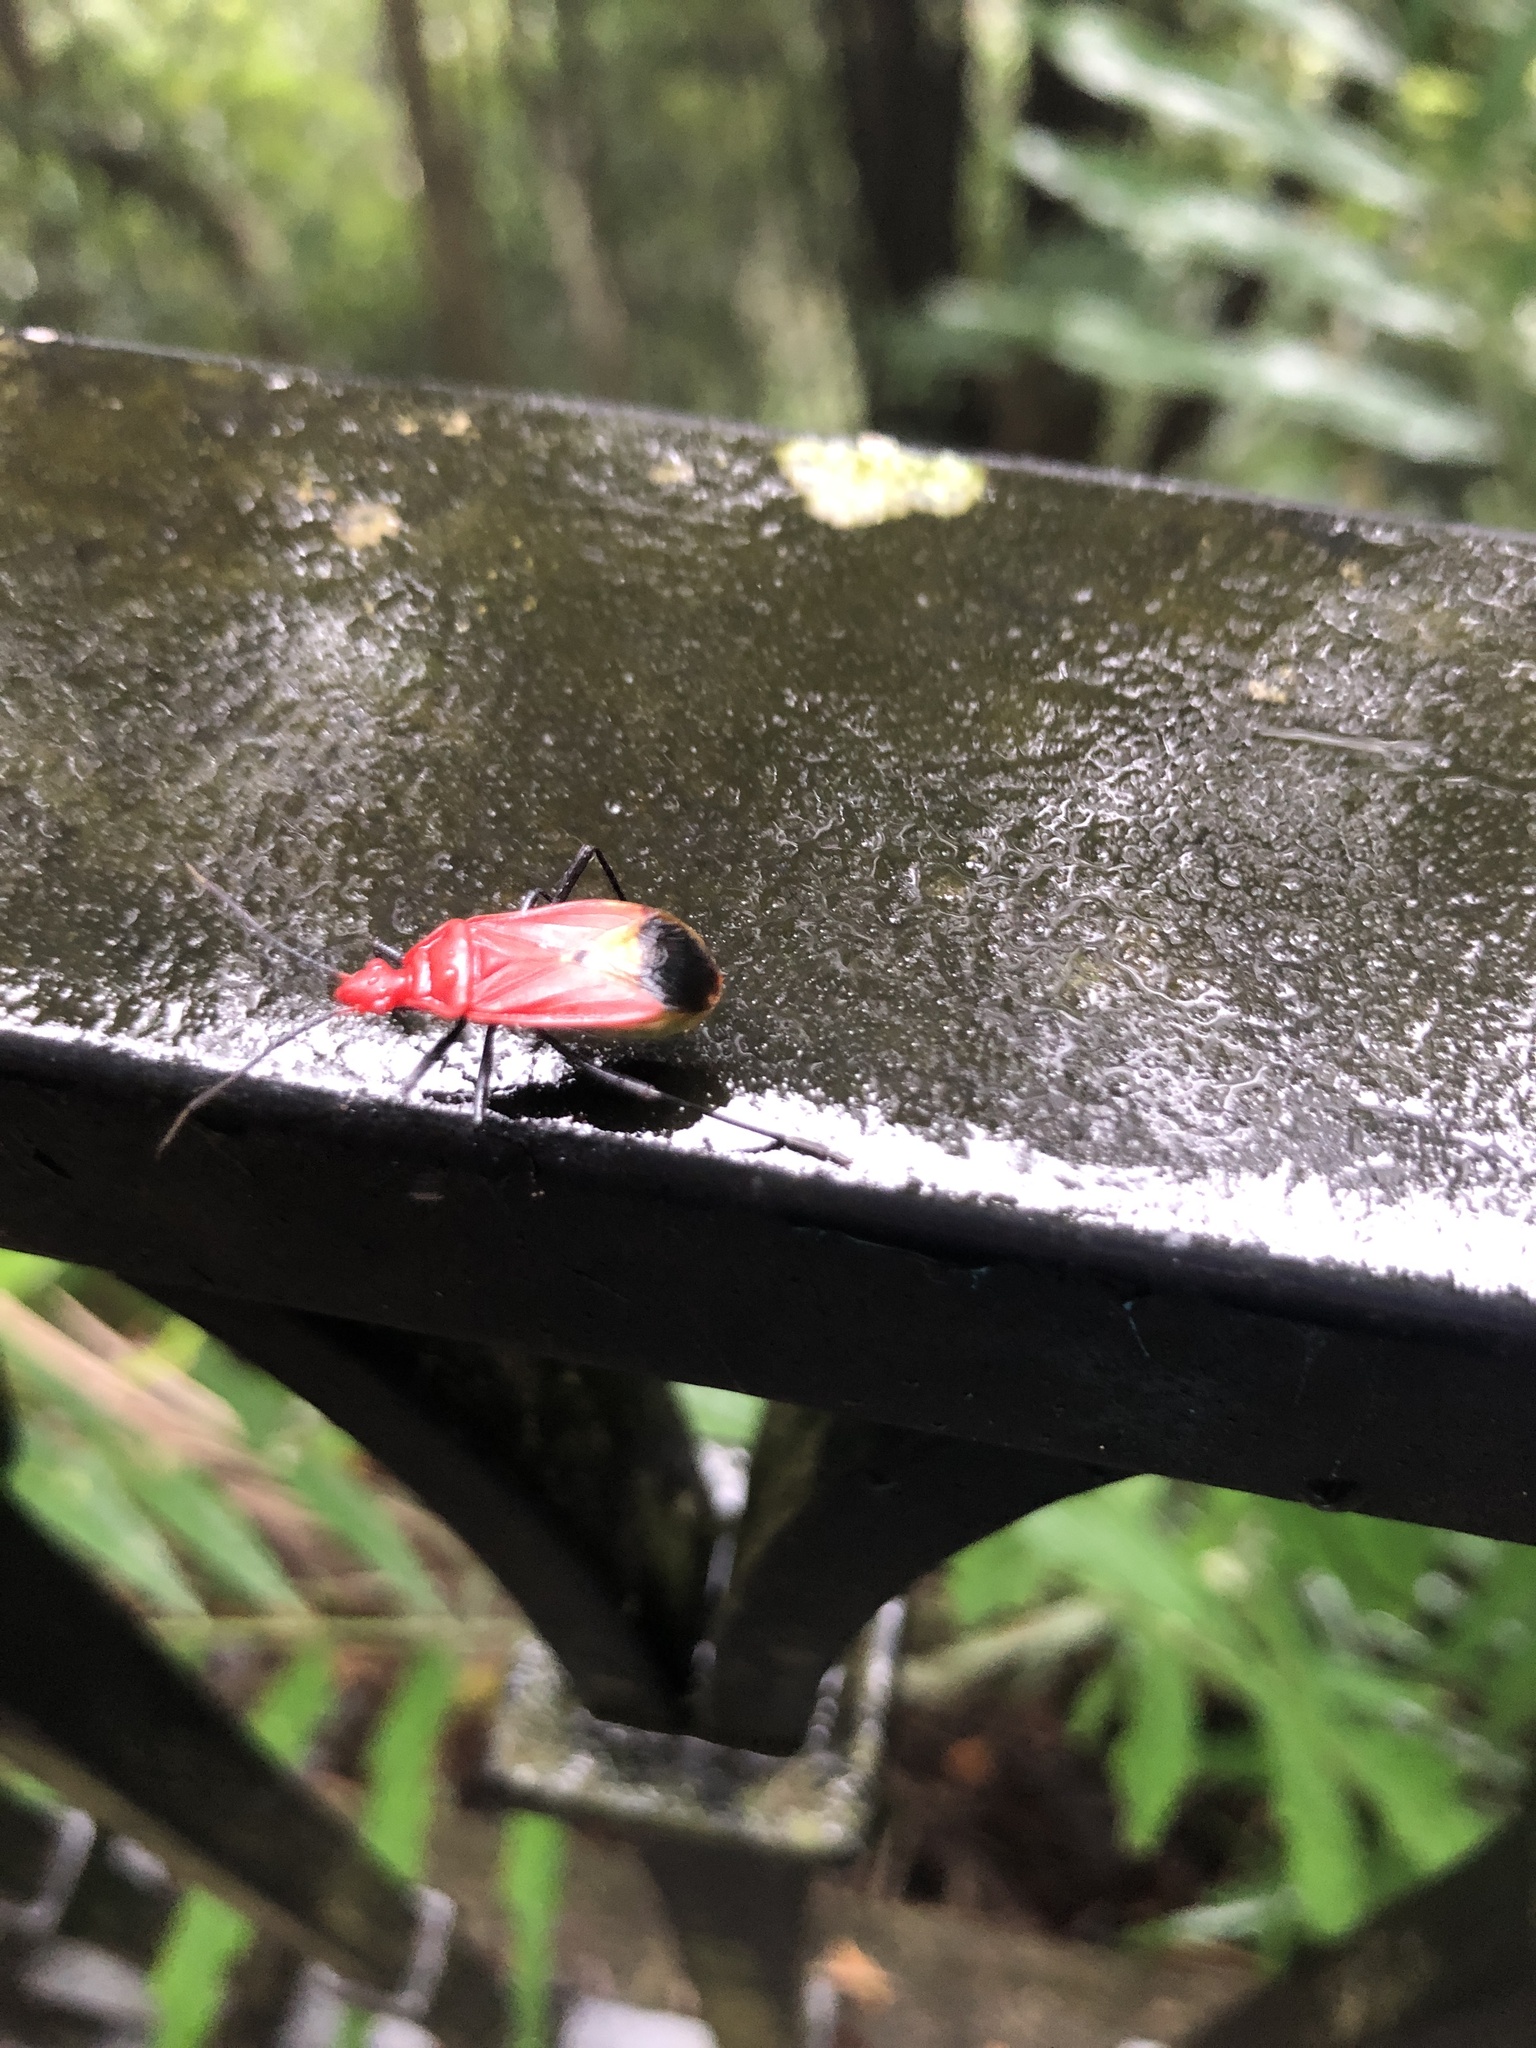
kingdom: Animalia
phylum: Arthropoda
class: Insecta
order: Hemiptera
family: Pyrrhocoridae
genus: Dindymus
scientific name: Dindymus
